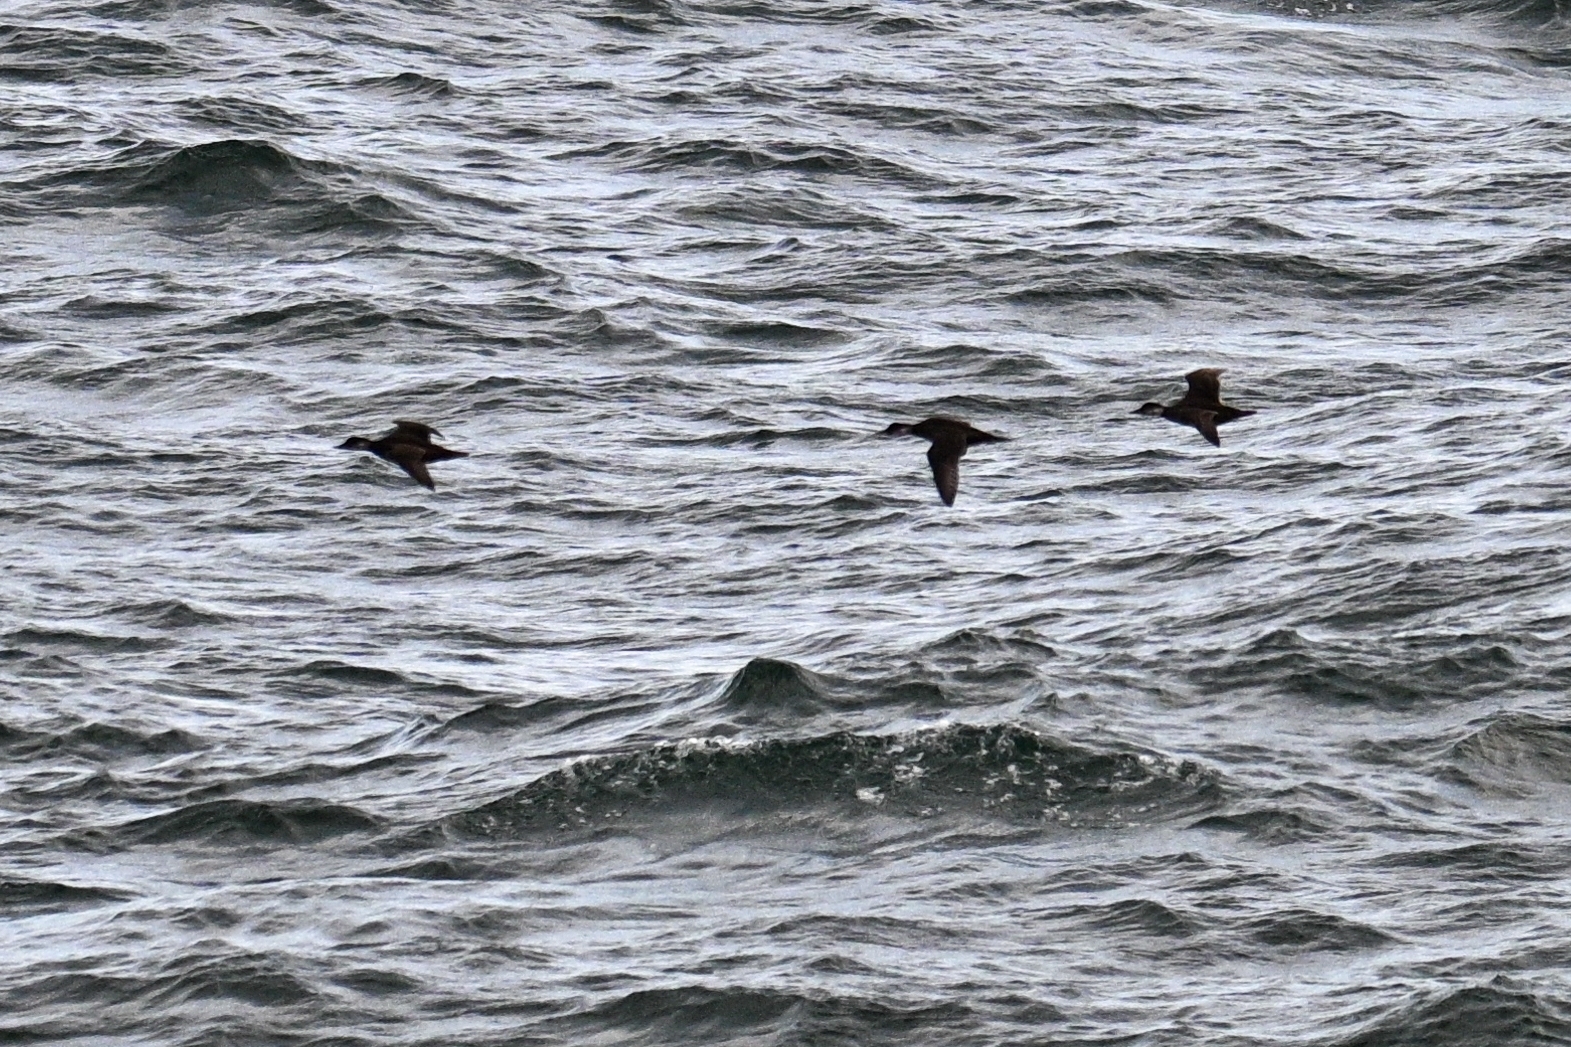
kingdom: Animalia
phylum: Chordata
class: Aves
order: Anseriformes
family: Anatidae
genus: Melanitta
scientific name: Melanitta nigra
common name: Common scoter
